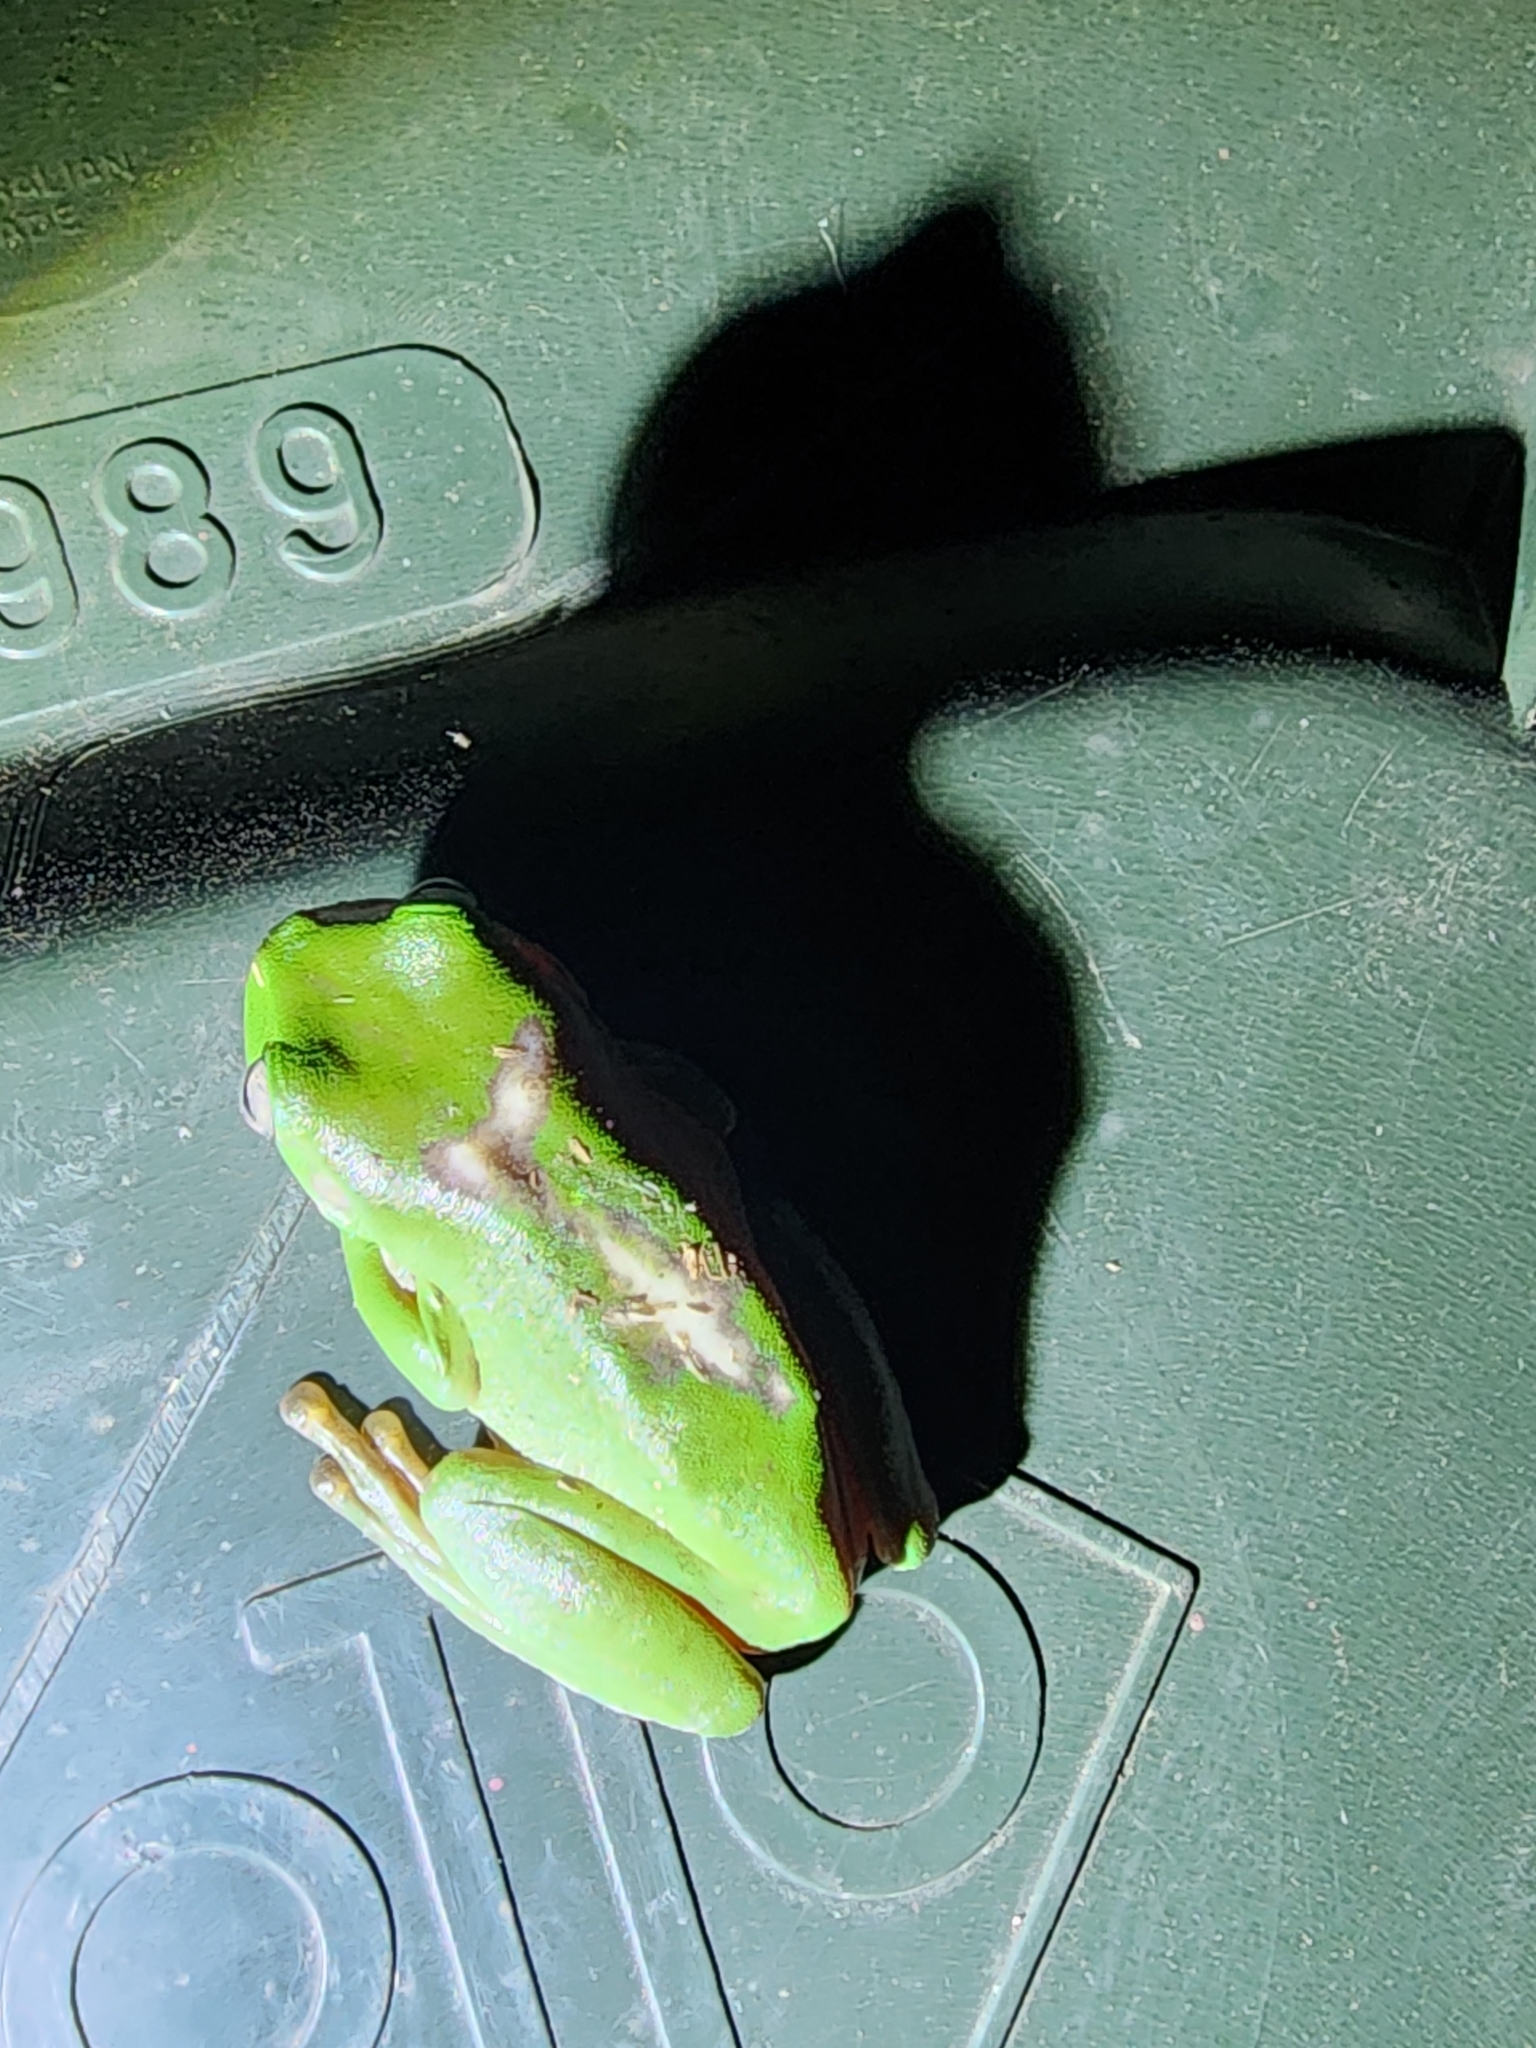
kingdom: Animalia
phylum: Chordata
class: Amphibia
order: Anura
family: Pelodryadidae
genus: Ranoidea
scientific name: Ranoidea caerulea
